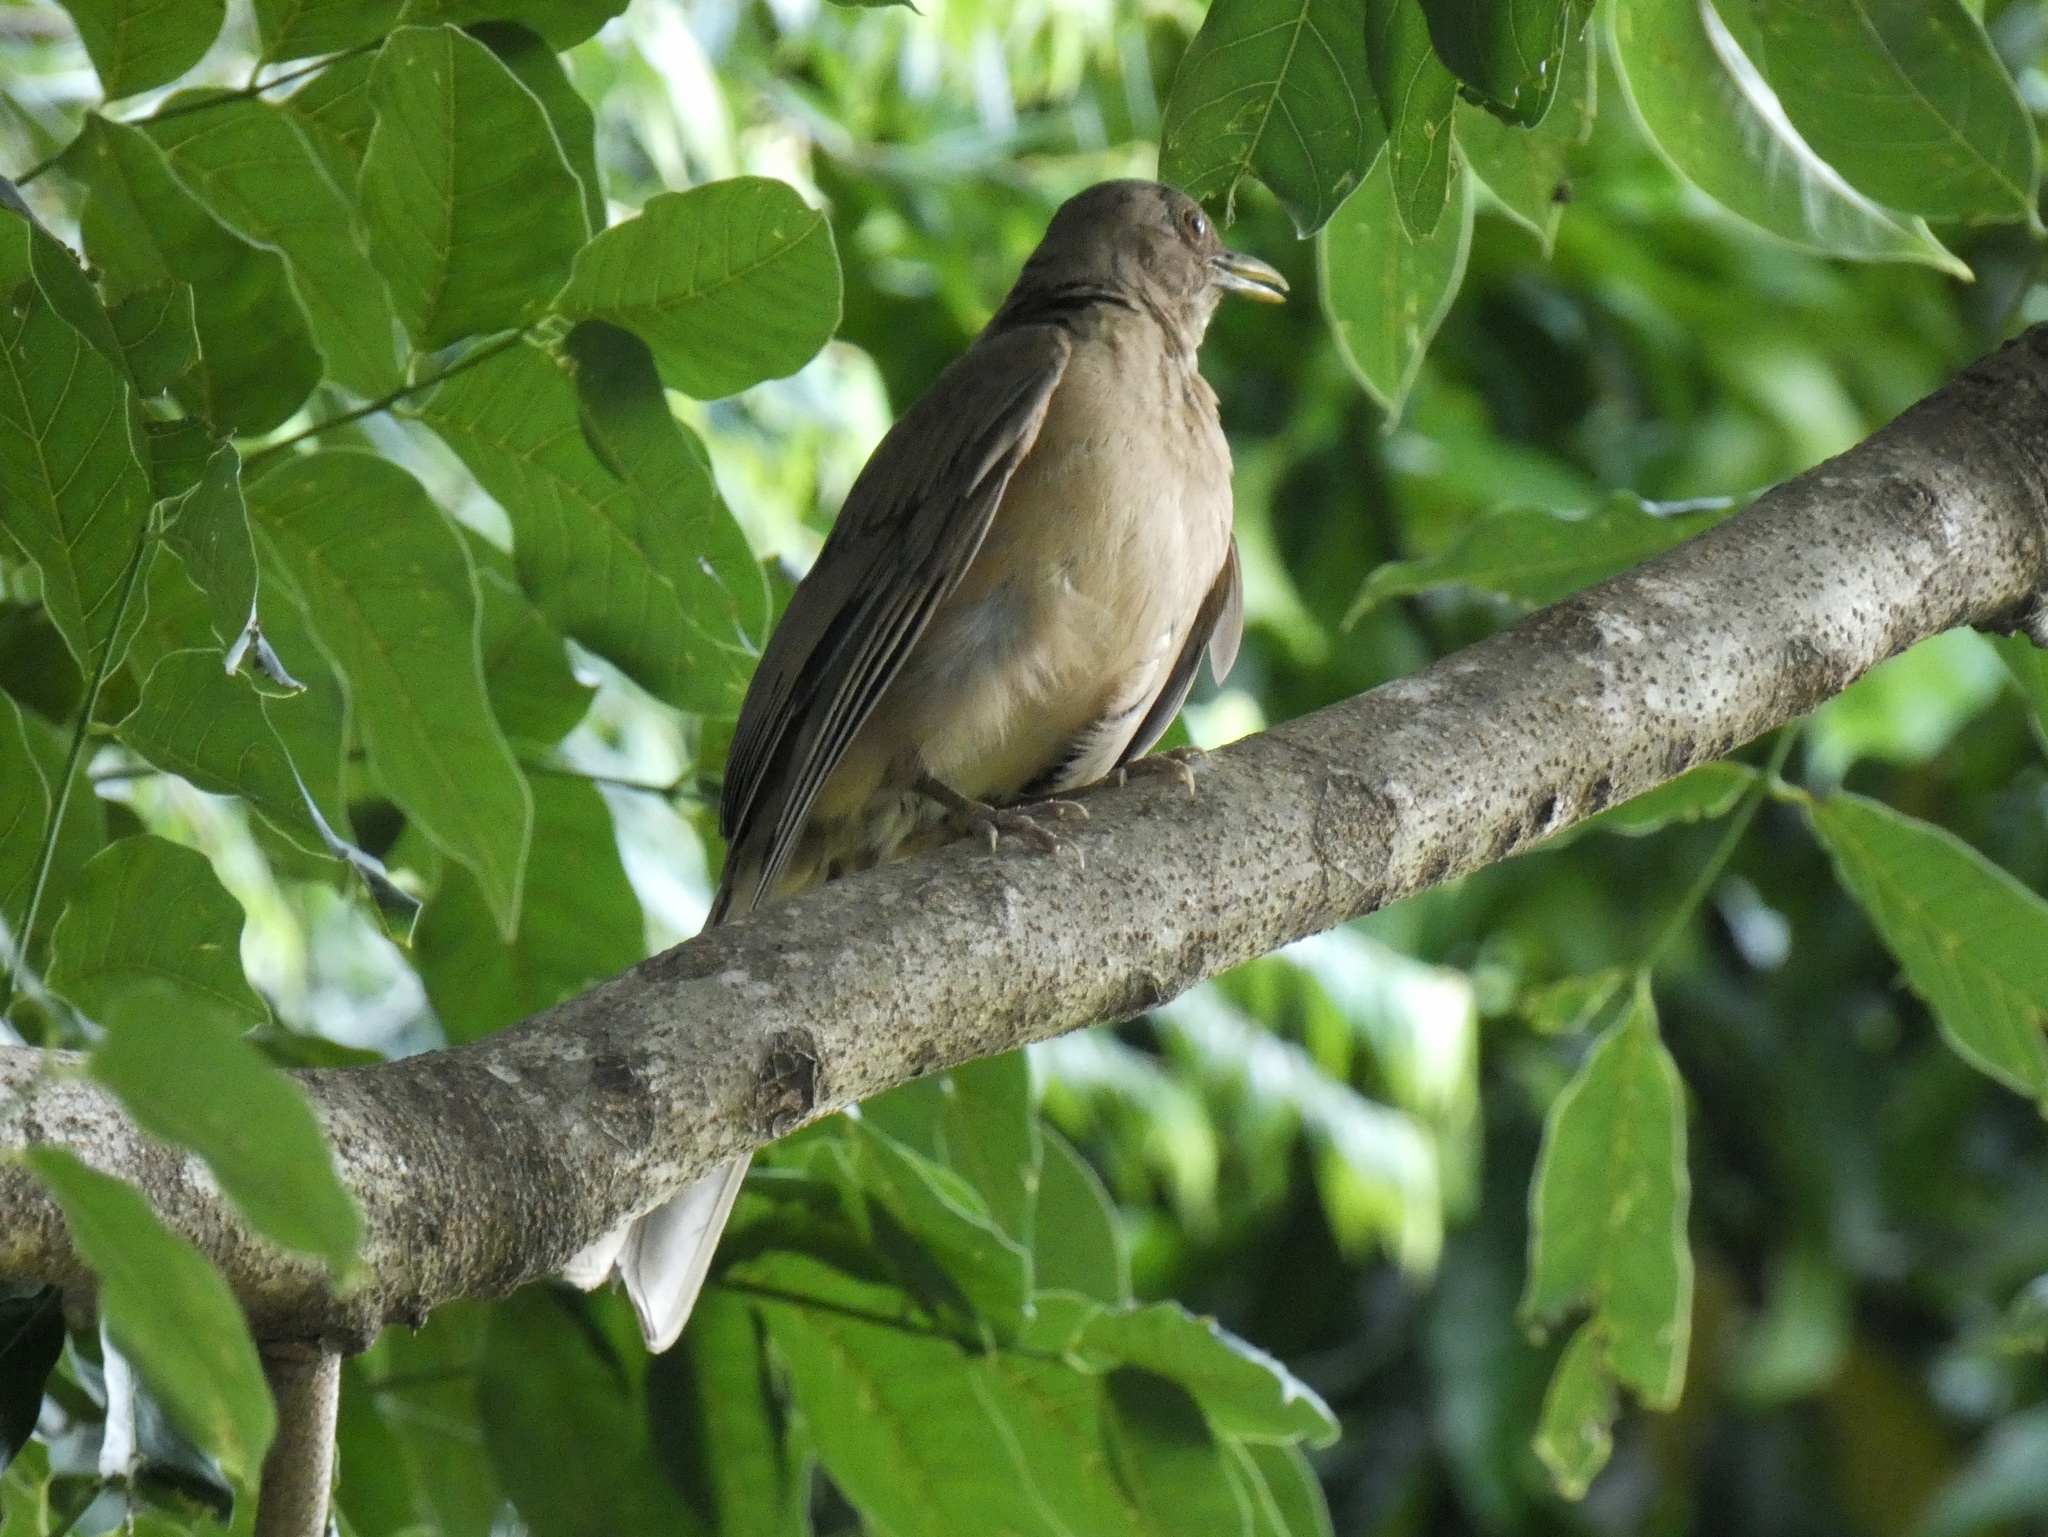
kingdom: Animalia
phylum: Chordata
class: Aves
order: Passeriformes
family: Turdidae
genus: Turdus
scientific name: Turdus grayi
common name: Clay-colored thrush
